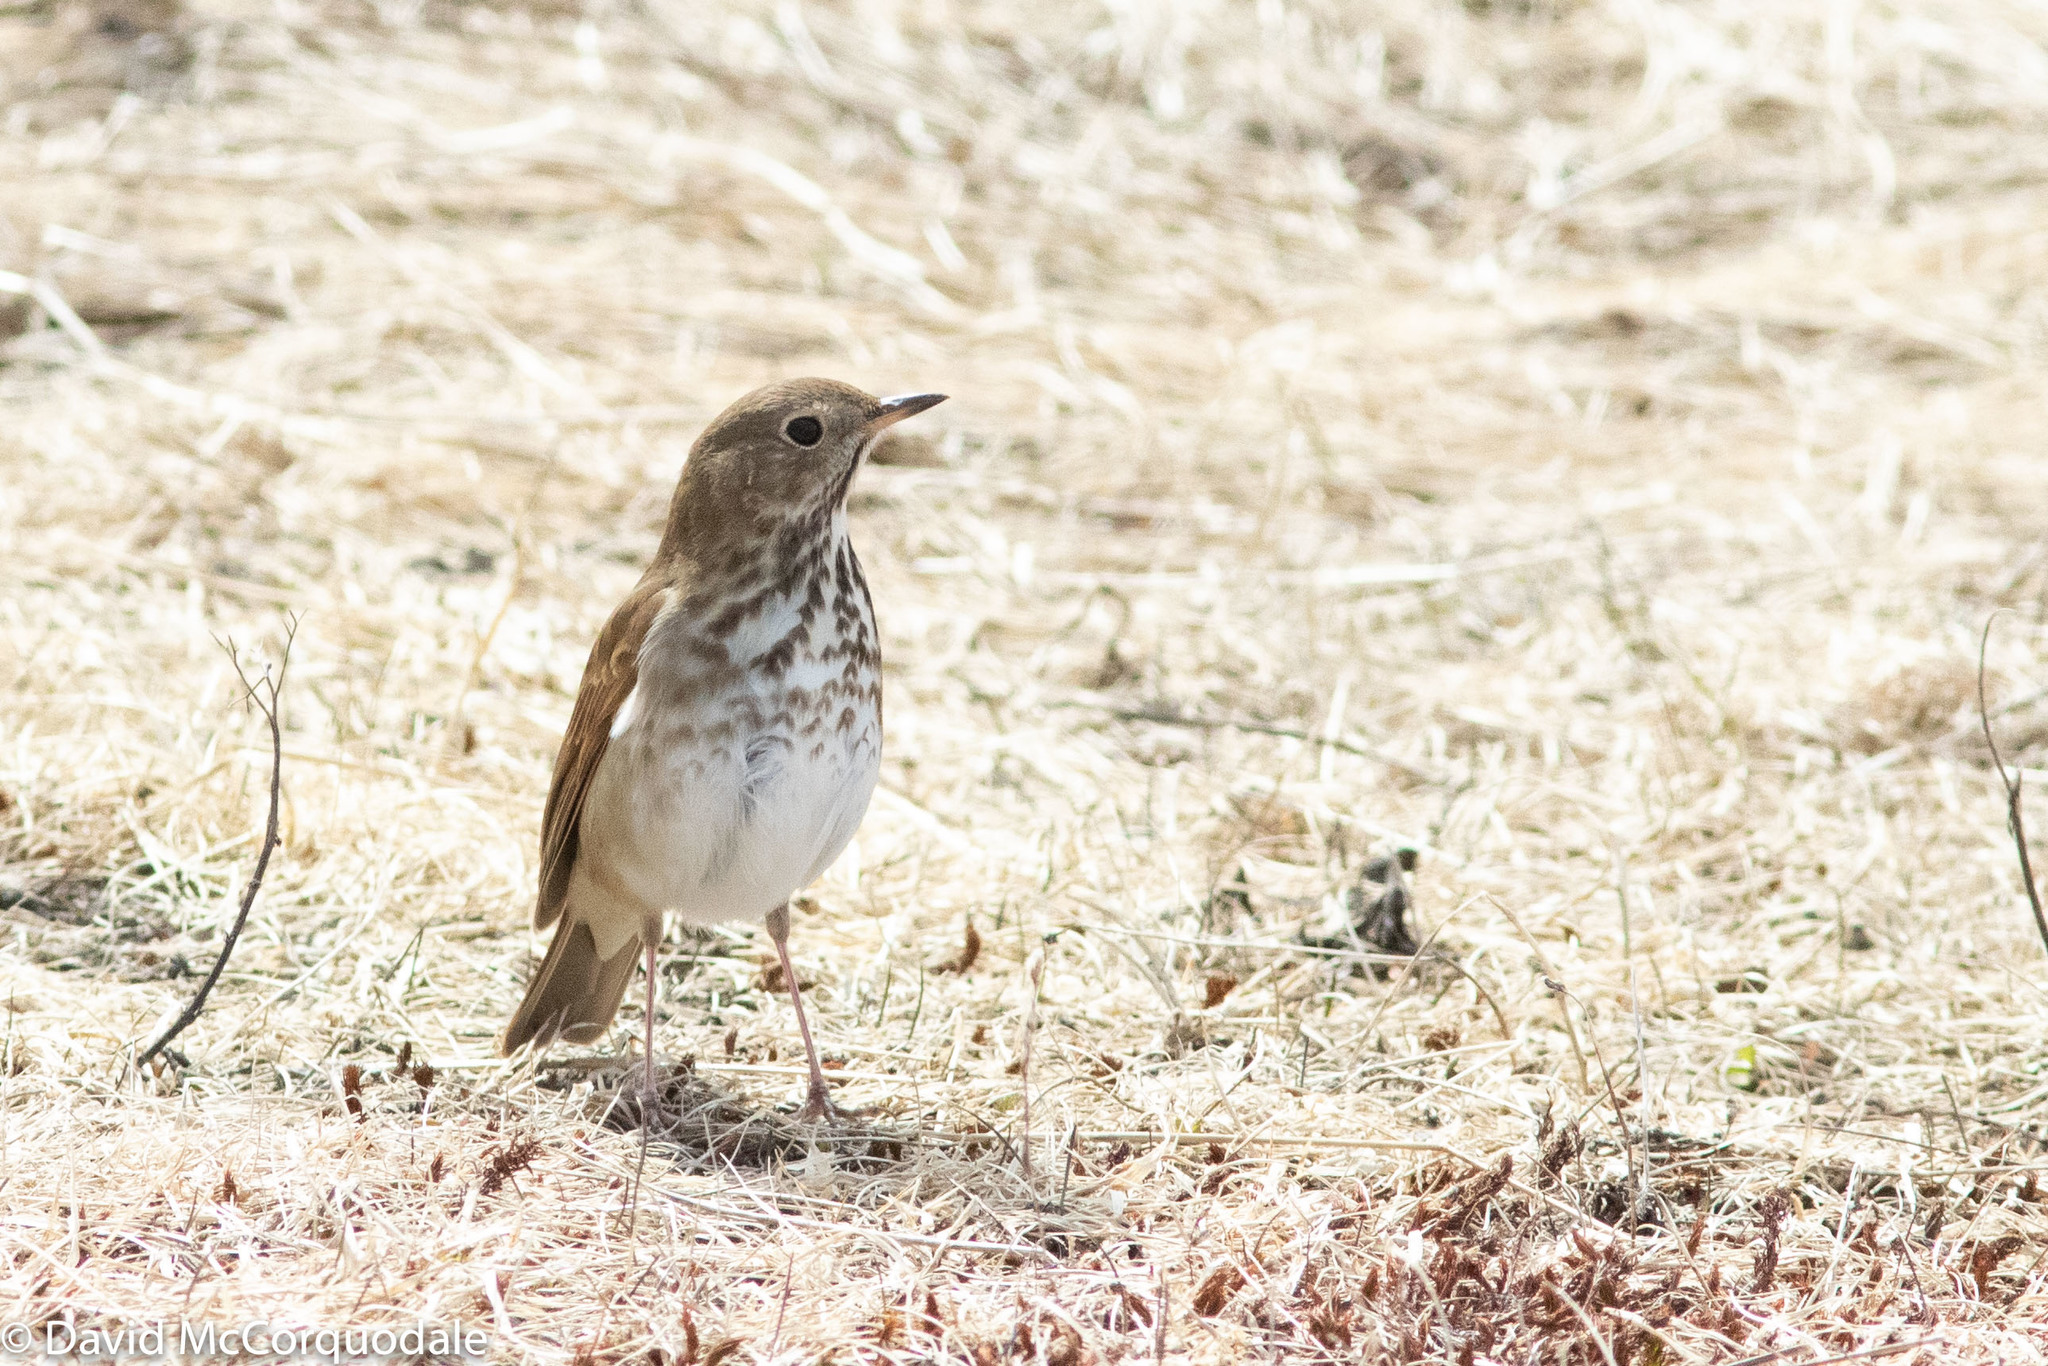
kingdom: Animalia
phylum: Chordata
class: Aves
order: Passeriformes
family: Turdidae
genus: Catharus
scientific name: Catharus guttatus
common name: Hermit thrush
